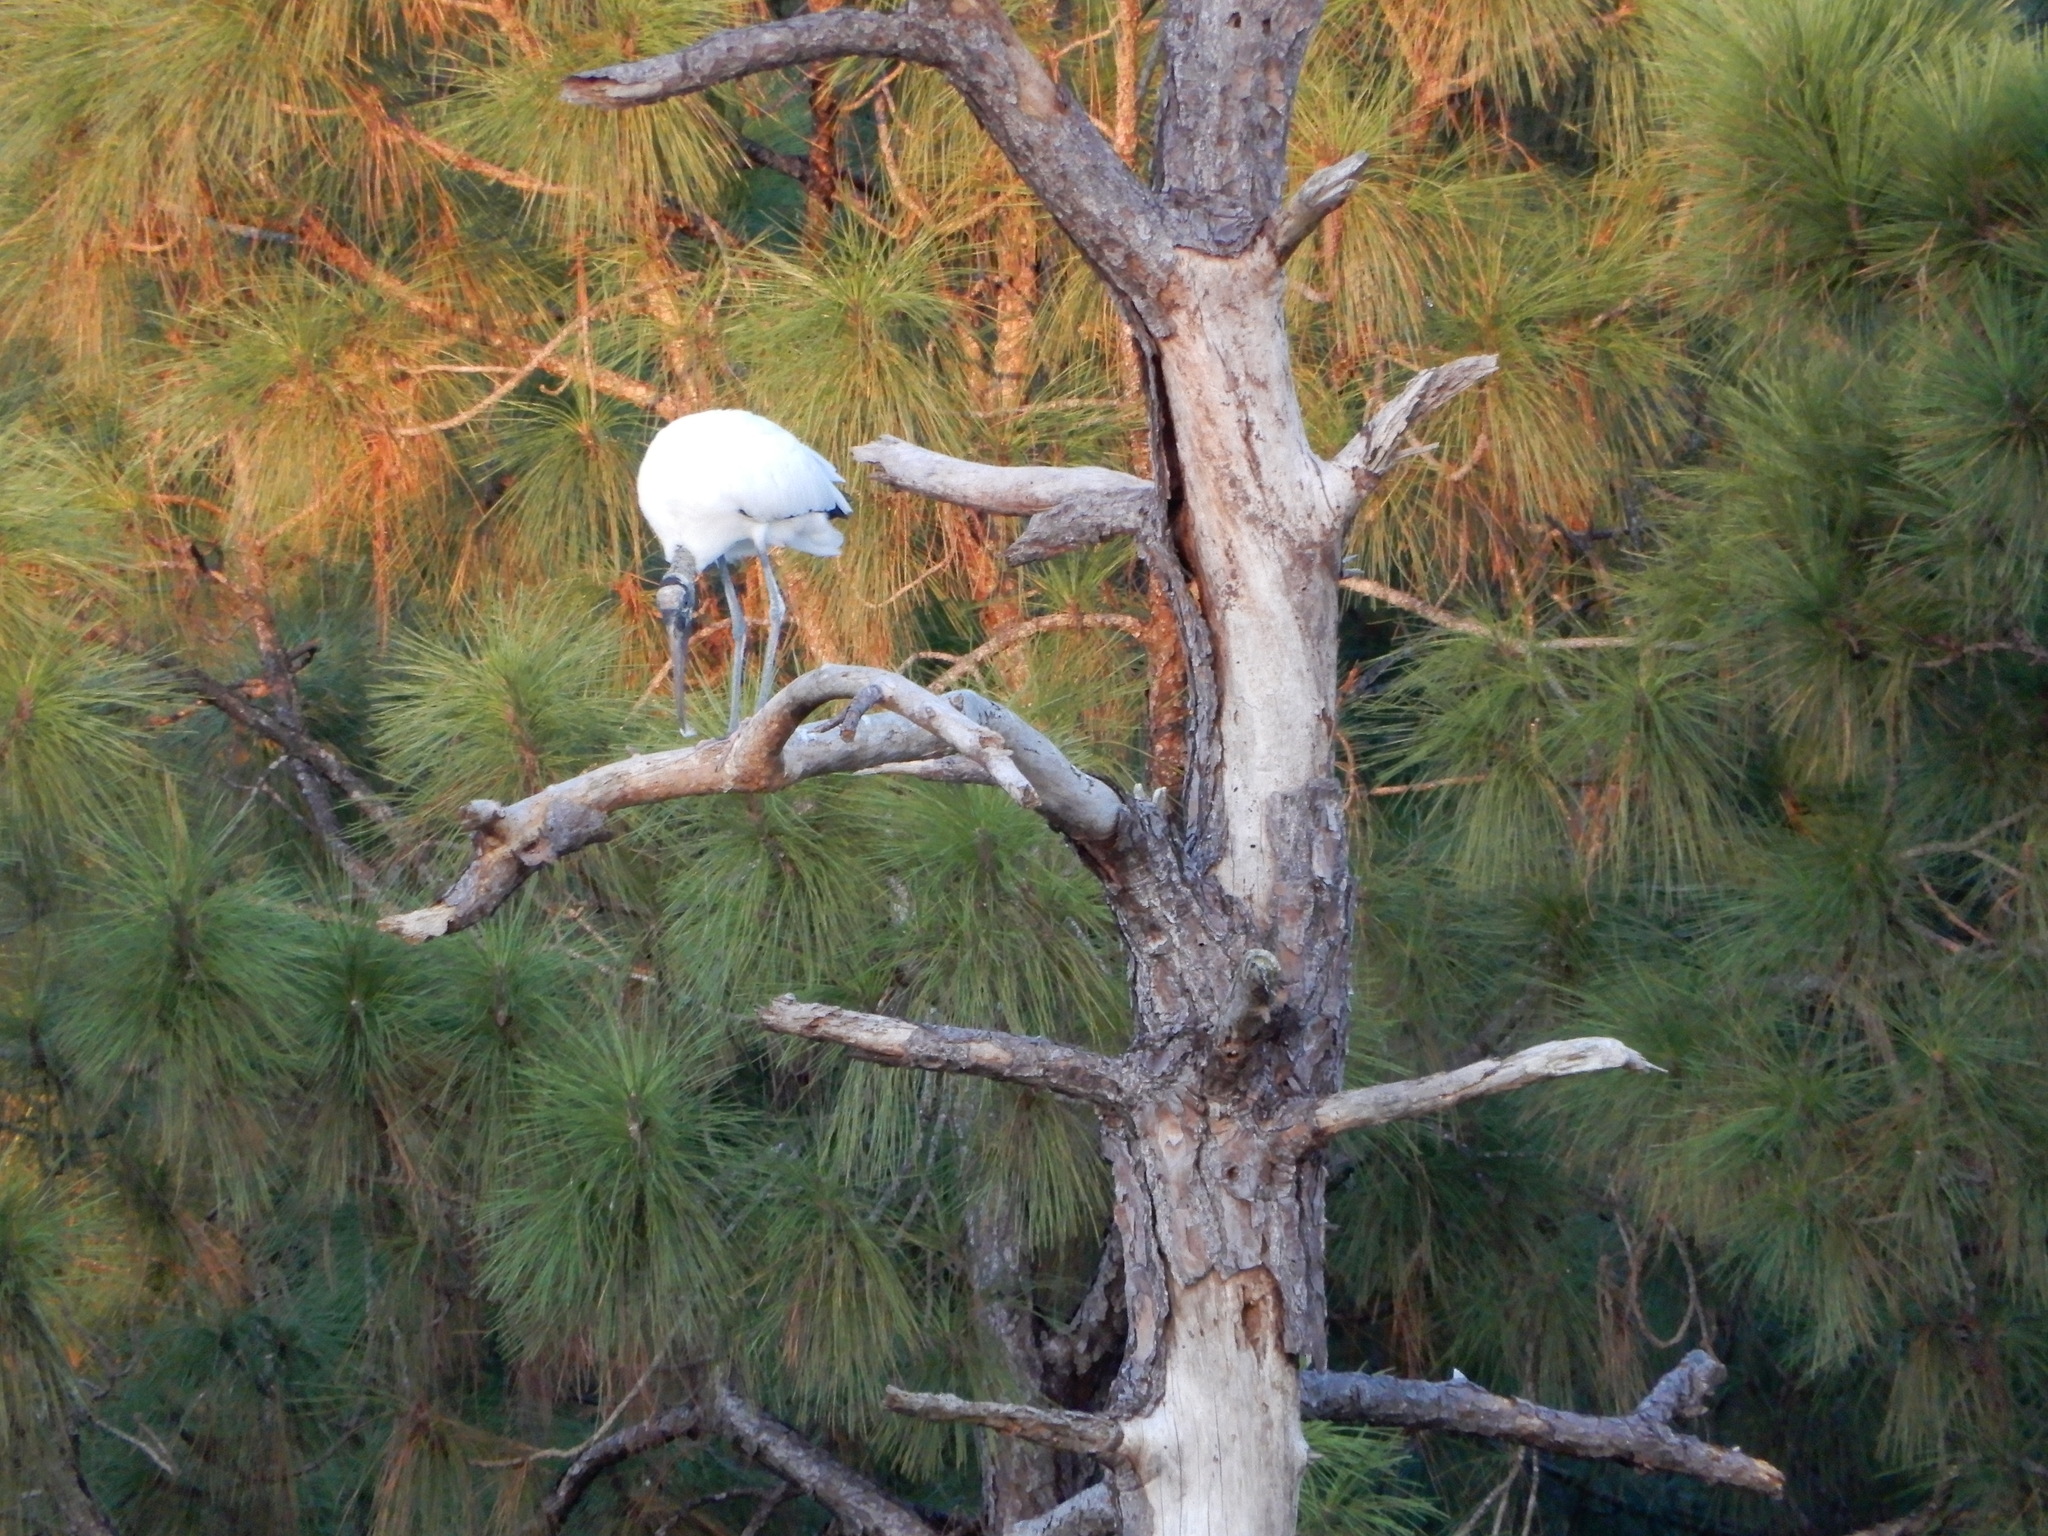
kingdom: Animalia
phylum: Chordata
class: Aves
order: Ciconiiformes
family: Ciconiidae
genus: Mycteria
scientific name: Mycteria americana
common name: Wood stork
